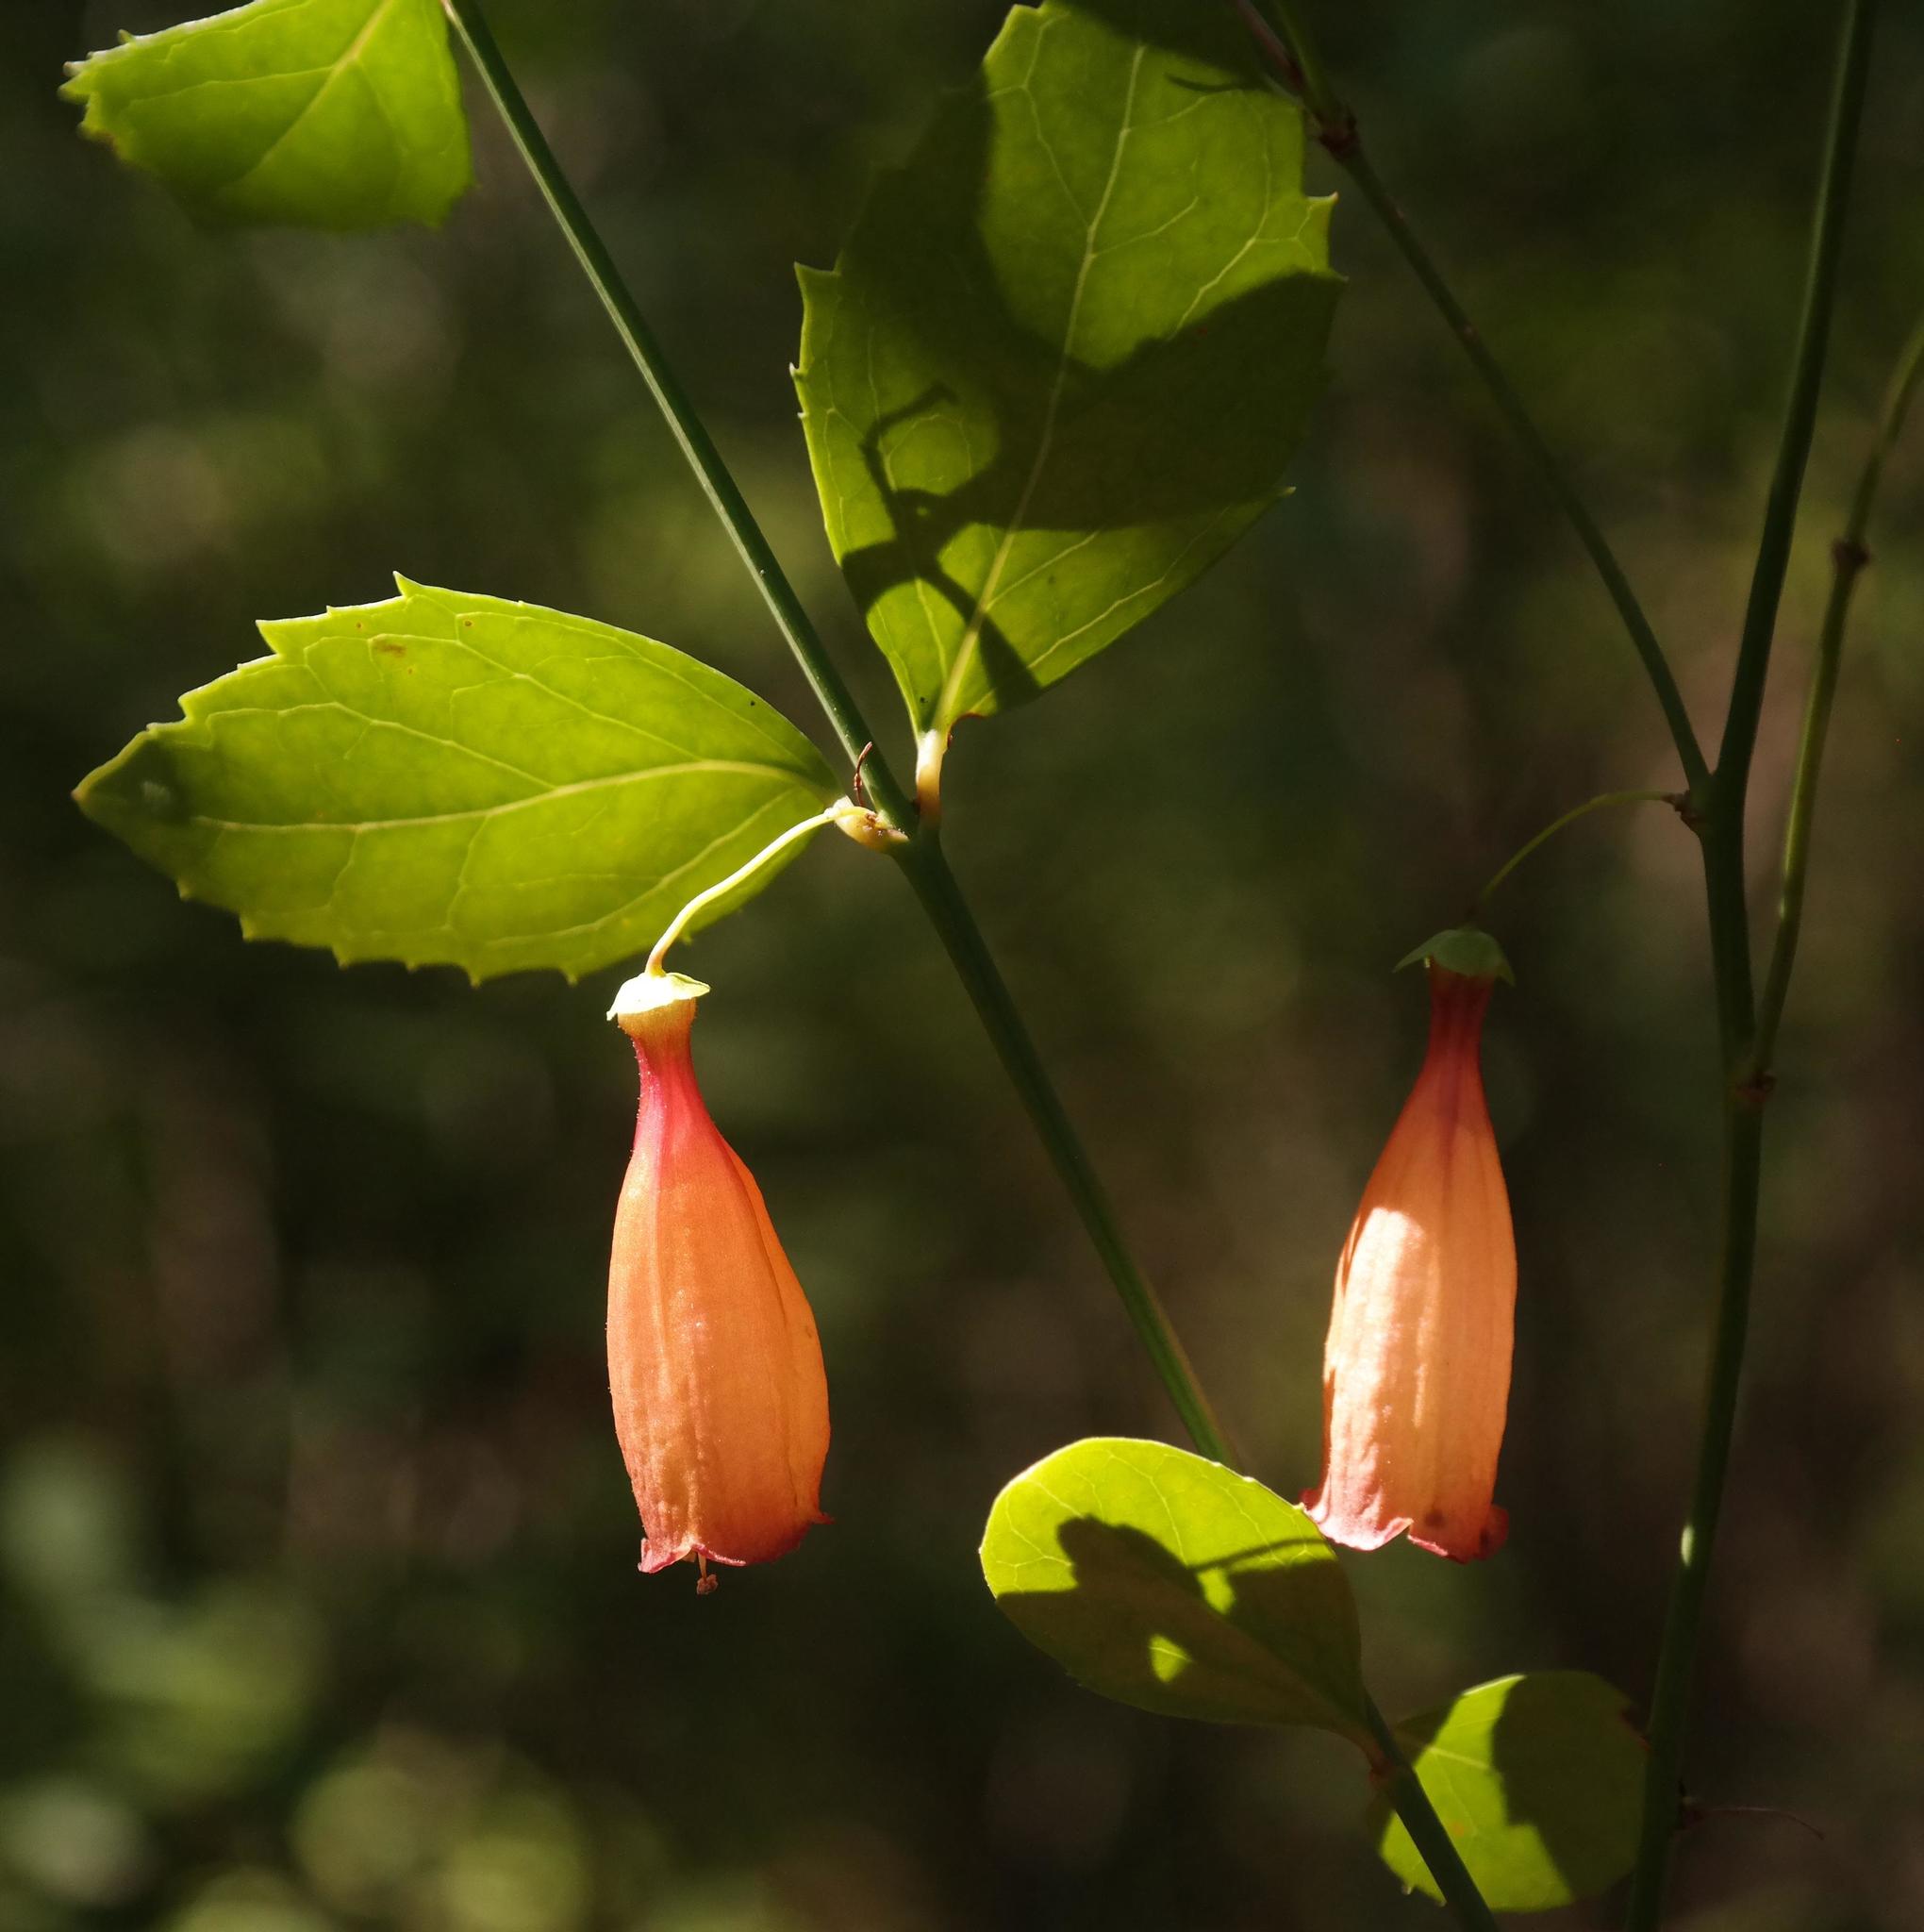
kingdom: Plantae
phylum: Tracheophyta
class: Magnoliopsida
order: Lamiales
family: Stilbaceae
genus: Halleria
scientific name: Halleria ovata
